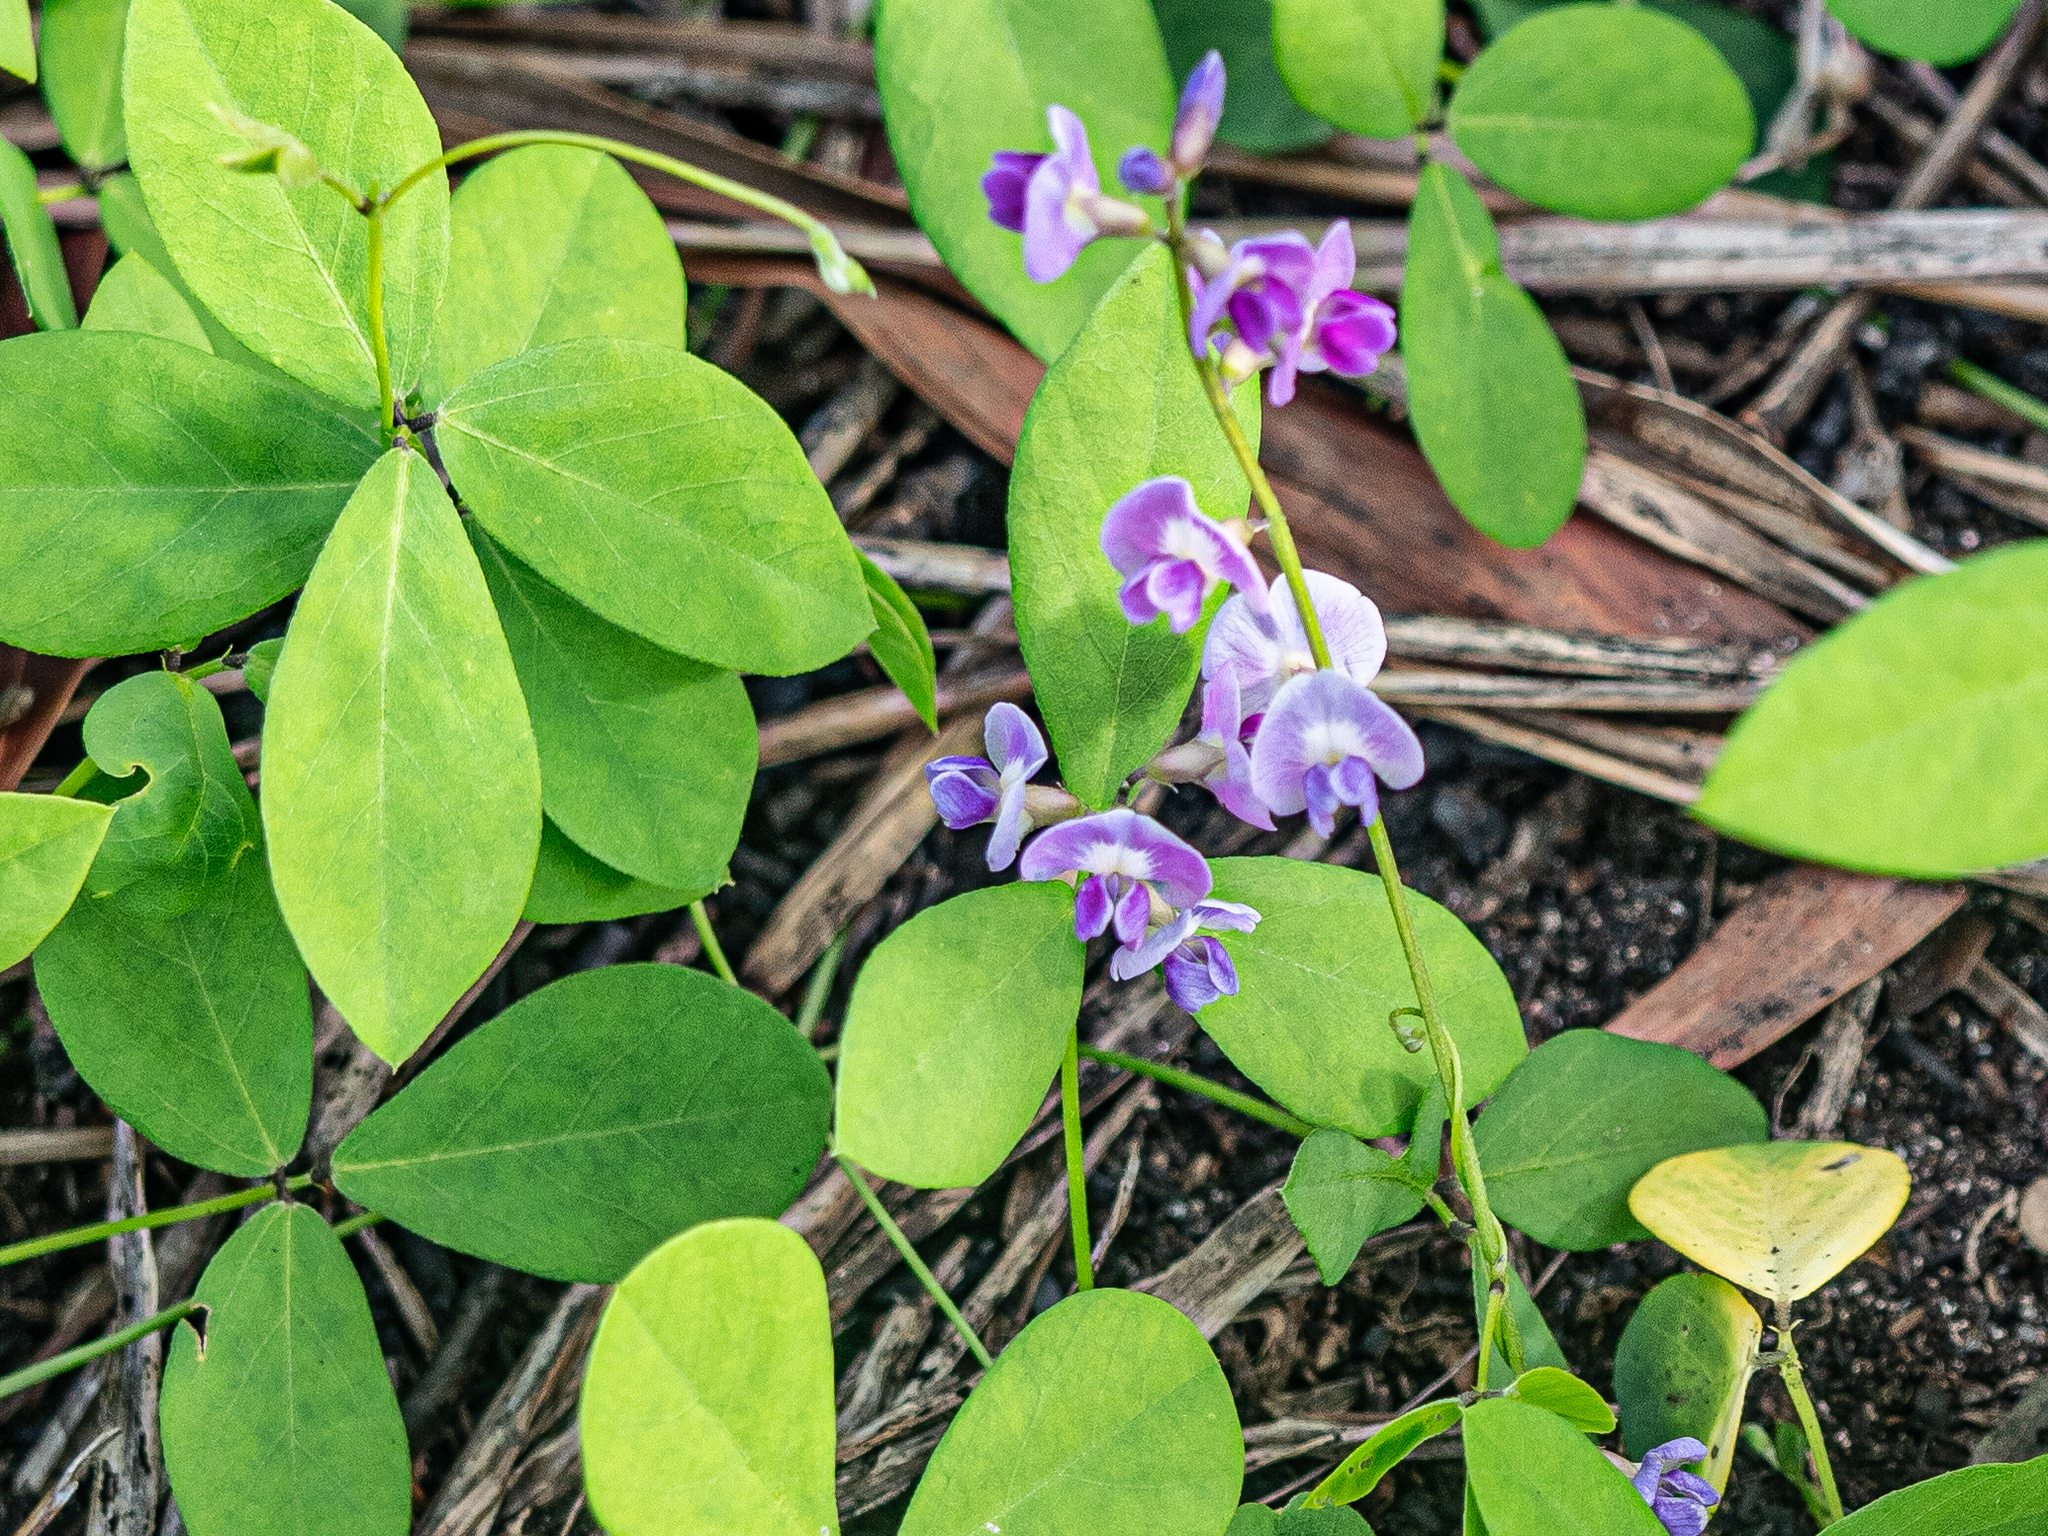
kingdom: Plantae
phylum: Tracheophyta
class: Magnoliopsida
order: Fabales
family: Fabaceae
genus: Glycine
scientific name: Glycine tabacina
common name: Pea glycine
